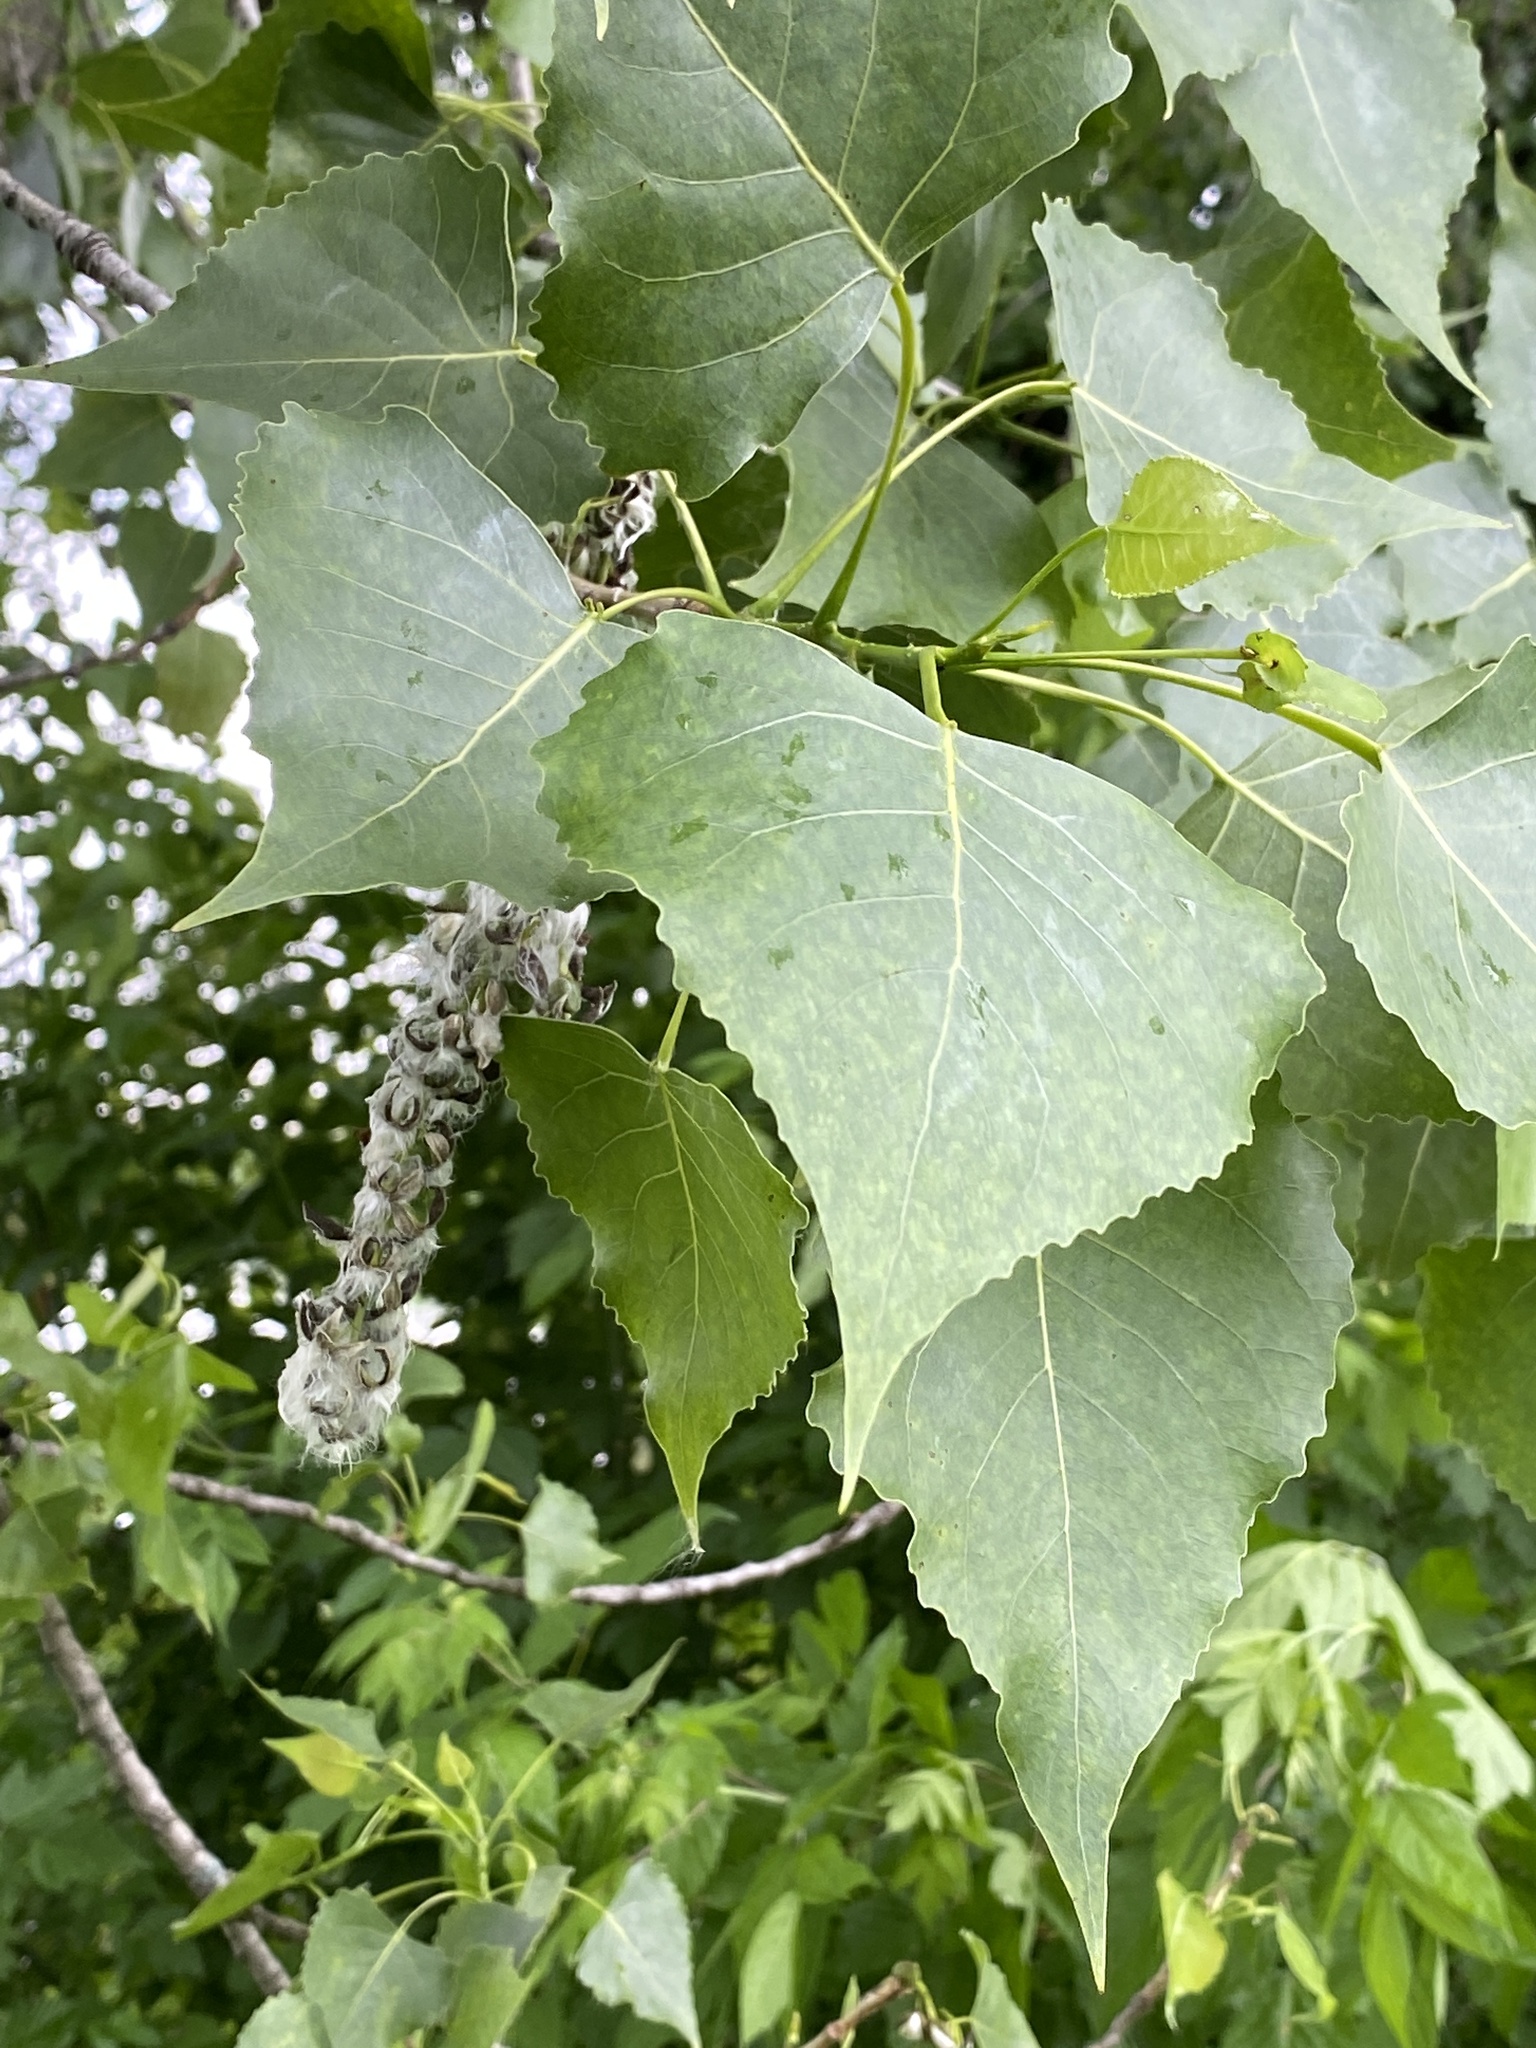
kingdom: Plantae
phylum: Tracheophyta
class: Magnoliopsida
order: Malpighiales
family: Salicaceae
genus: Populus
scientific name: Populus deltoides
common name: Eastern cottonwood
